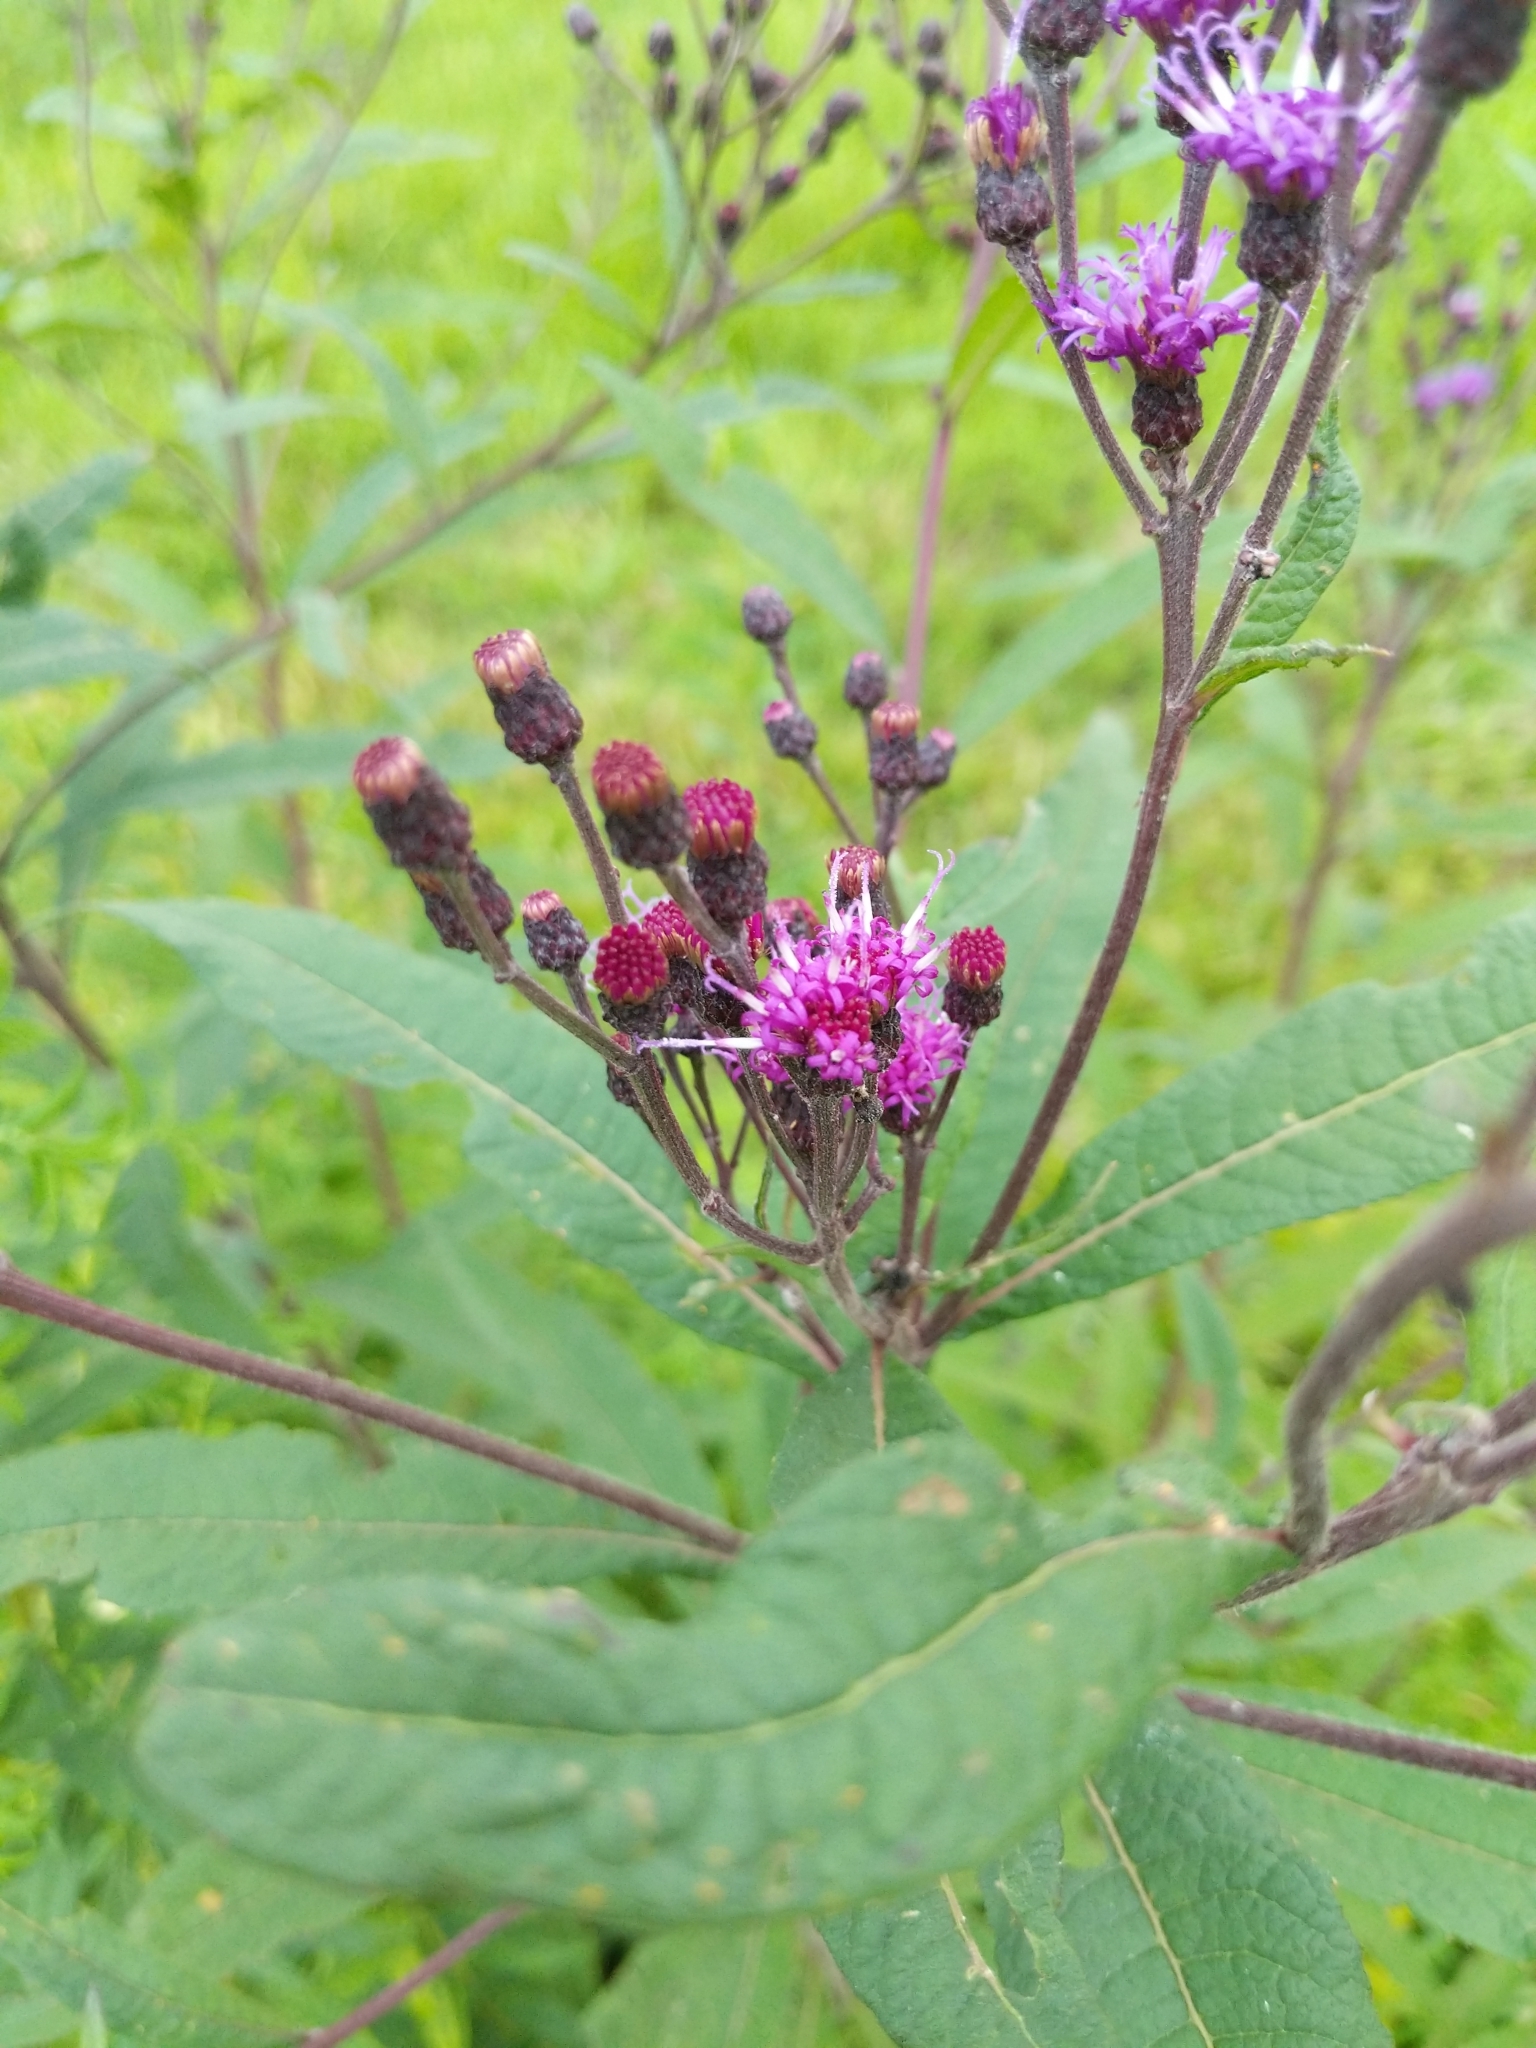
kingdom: Plantae
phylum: Tracheophyta
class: Magnoliopsida
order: Asterales
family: Asteraceae
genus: Vernonia
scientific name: Vernonia gigantea
